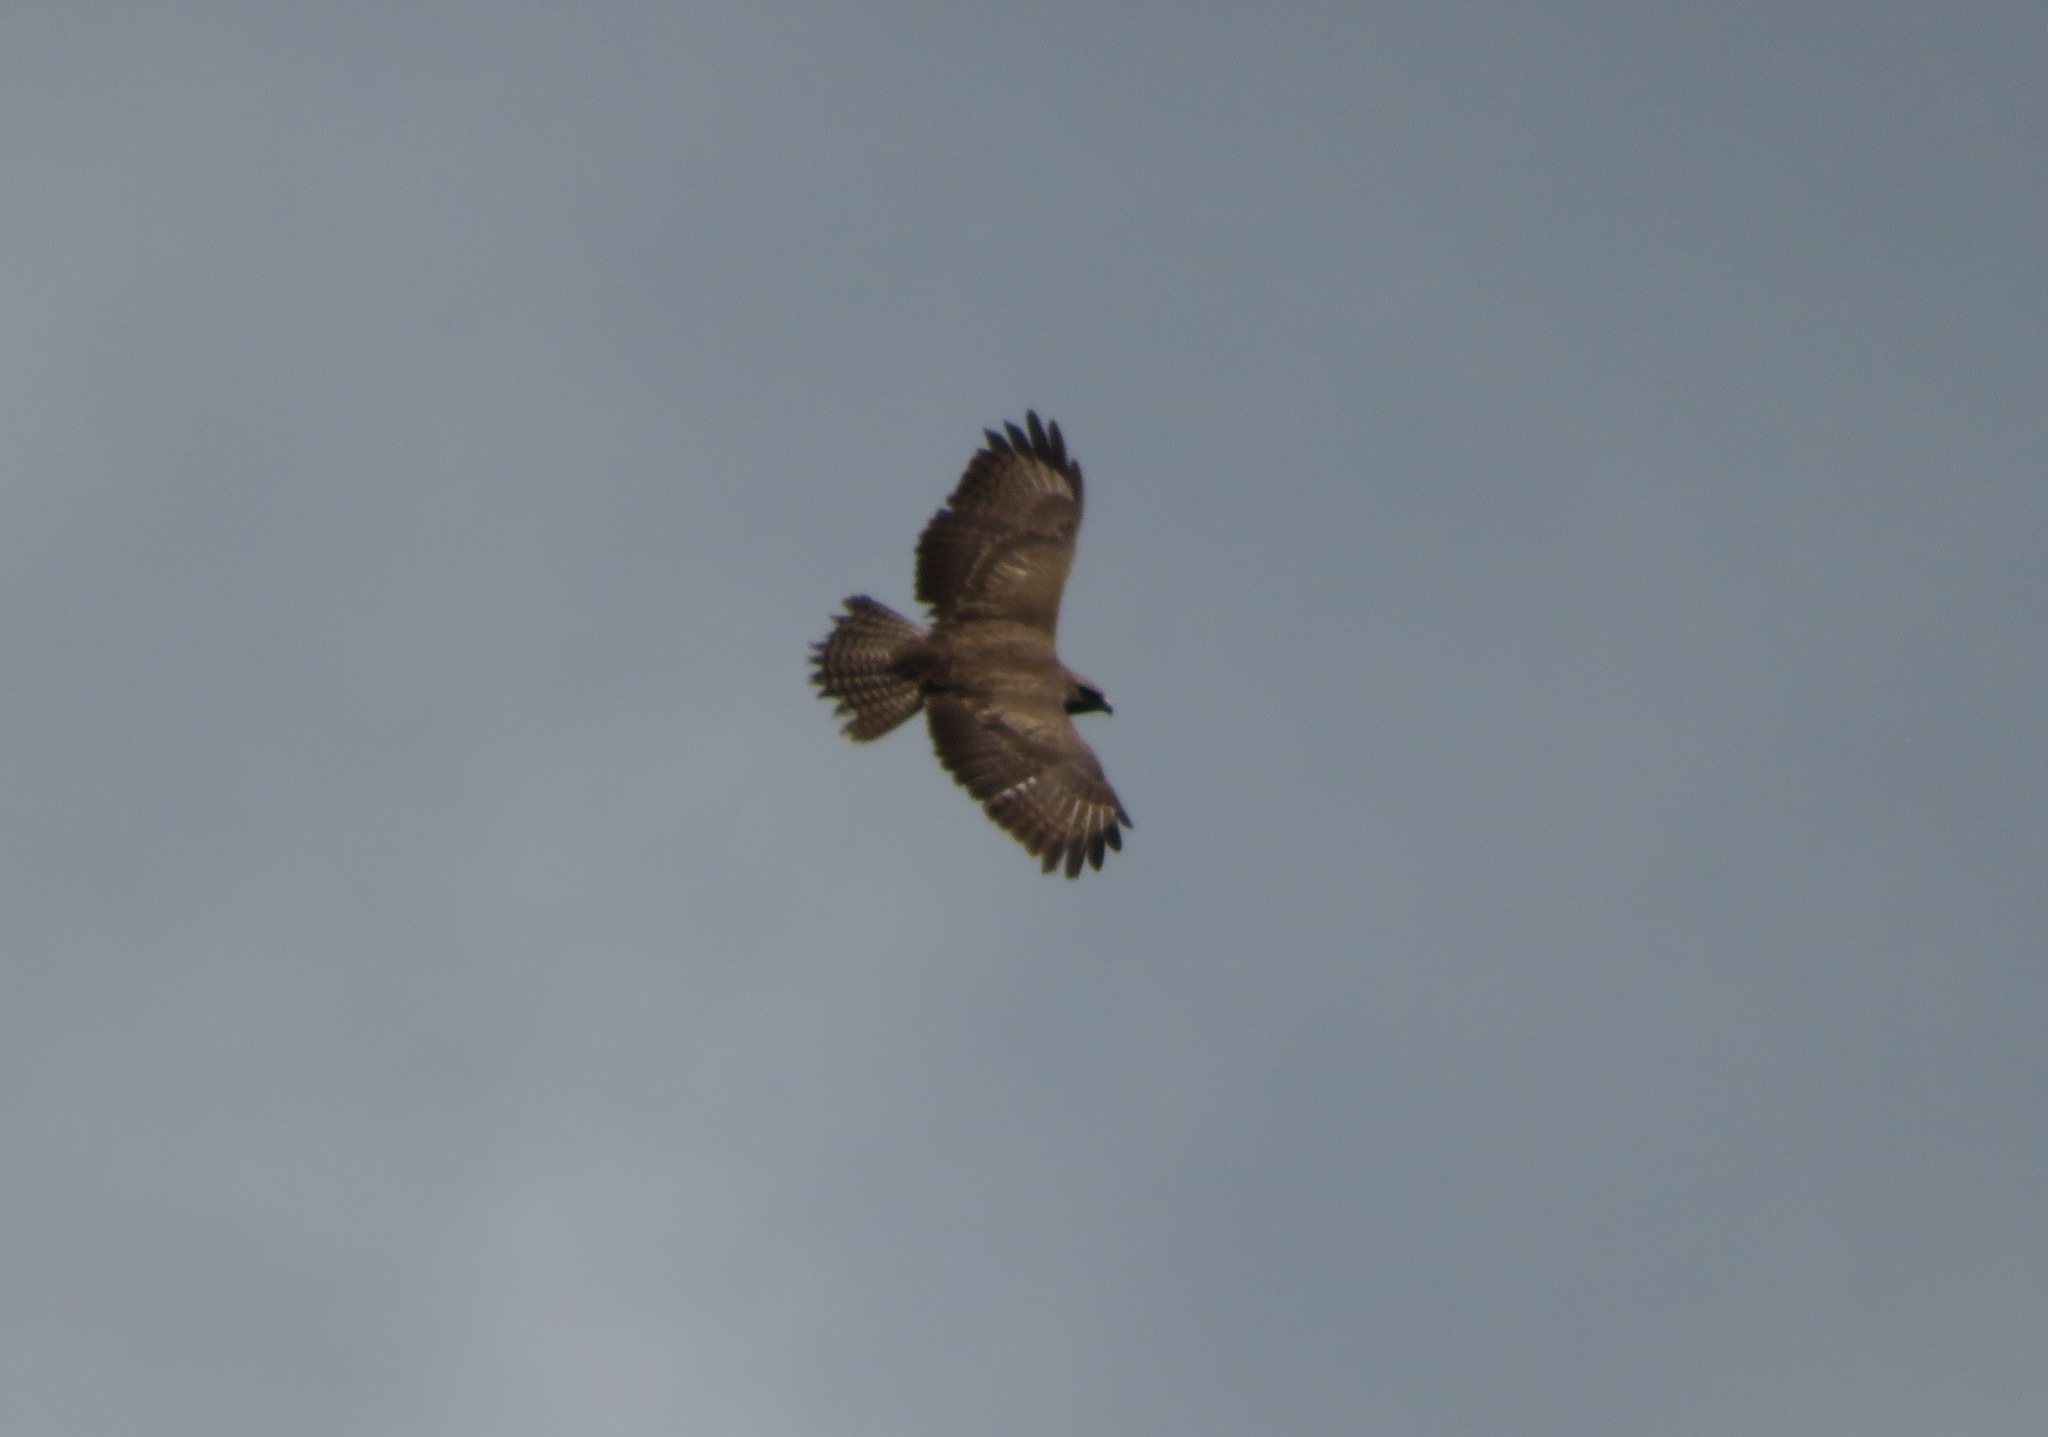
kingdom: Animalia
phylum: Chordata
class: Aves
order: Accipitriformes
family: Accipitridae
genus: Buteo
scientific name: Buteo buteo
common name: Common buzzard
